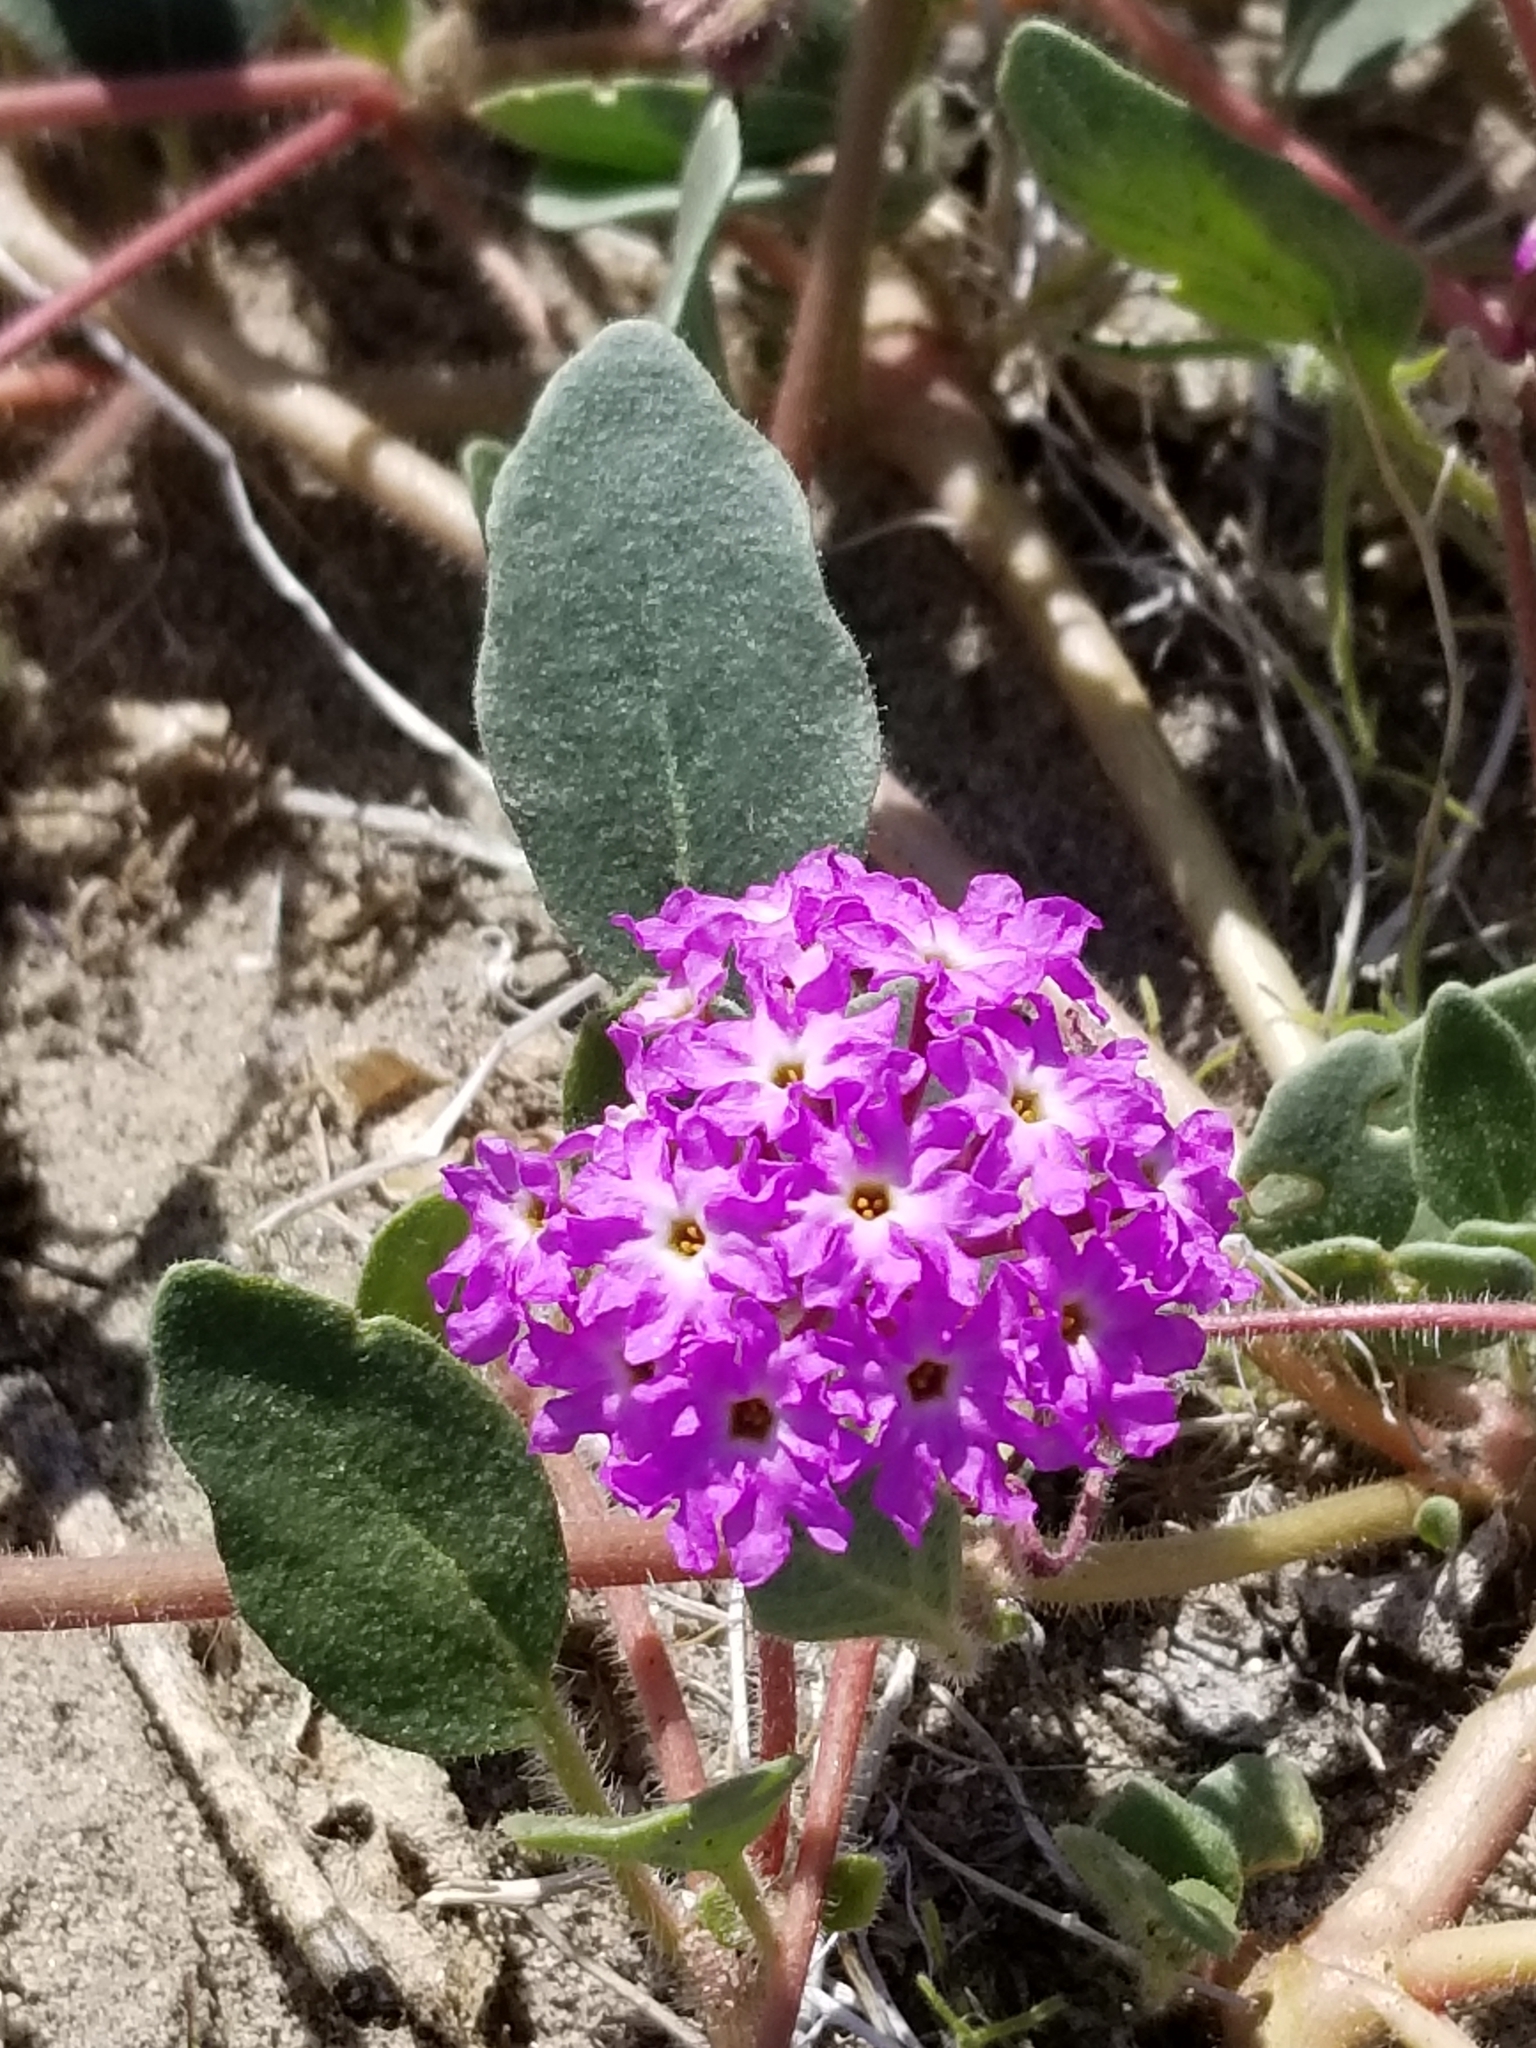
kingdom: Plantae
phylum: Tracheophyta
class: Magnoliopsida
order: Caryophyllales
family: Nyctaginaceae
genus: Abronia
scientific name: Abronia villosa
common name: Desert sand-verbena
